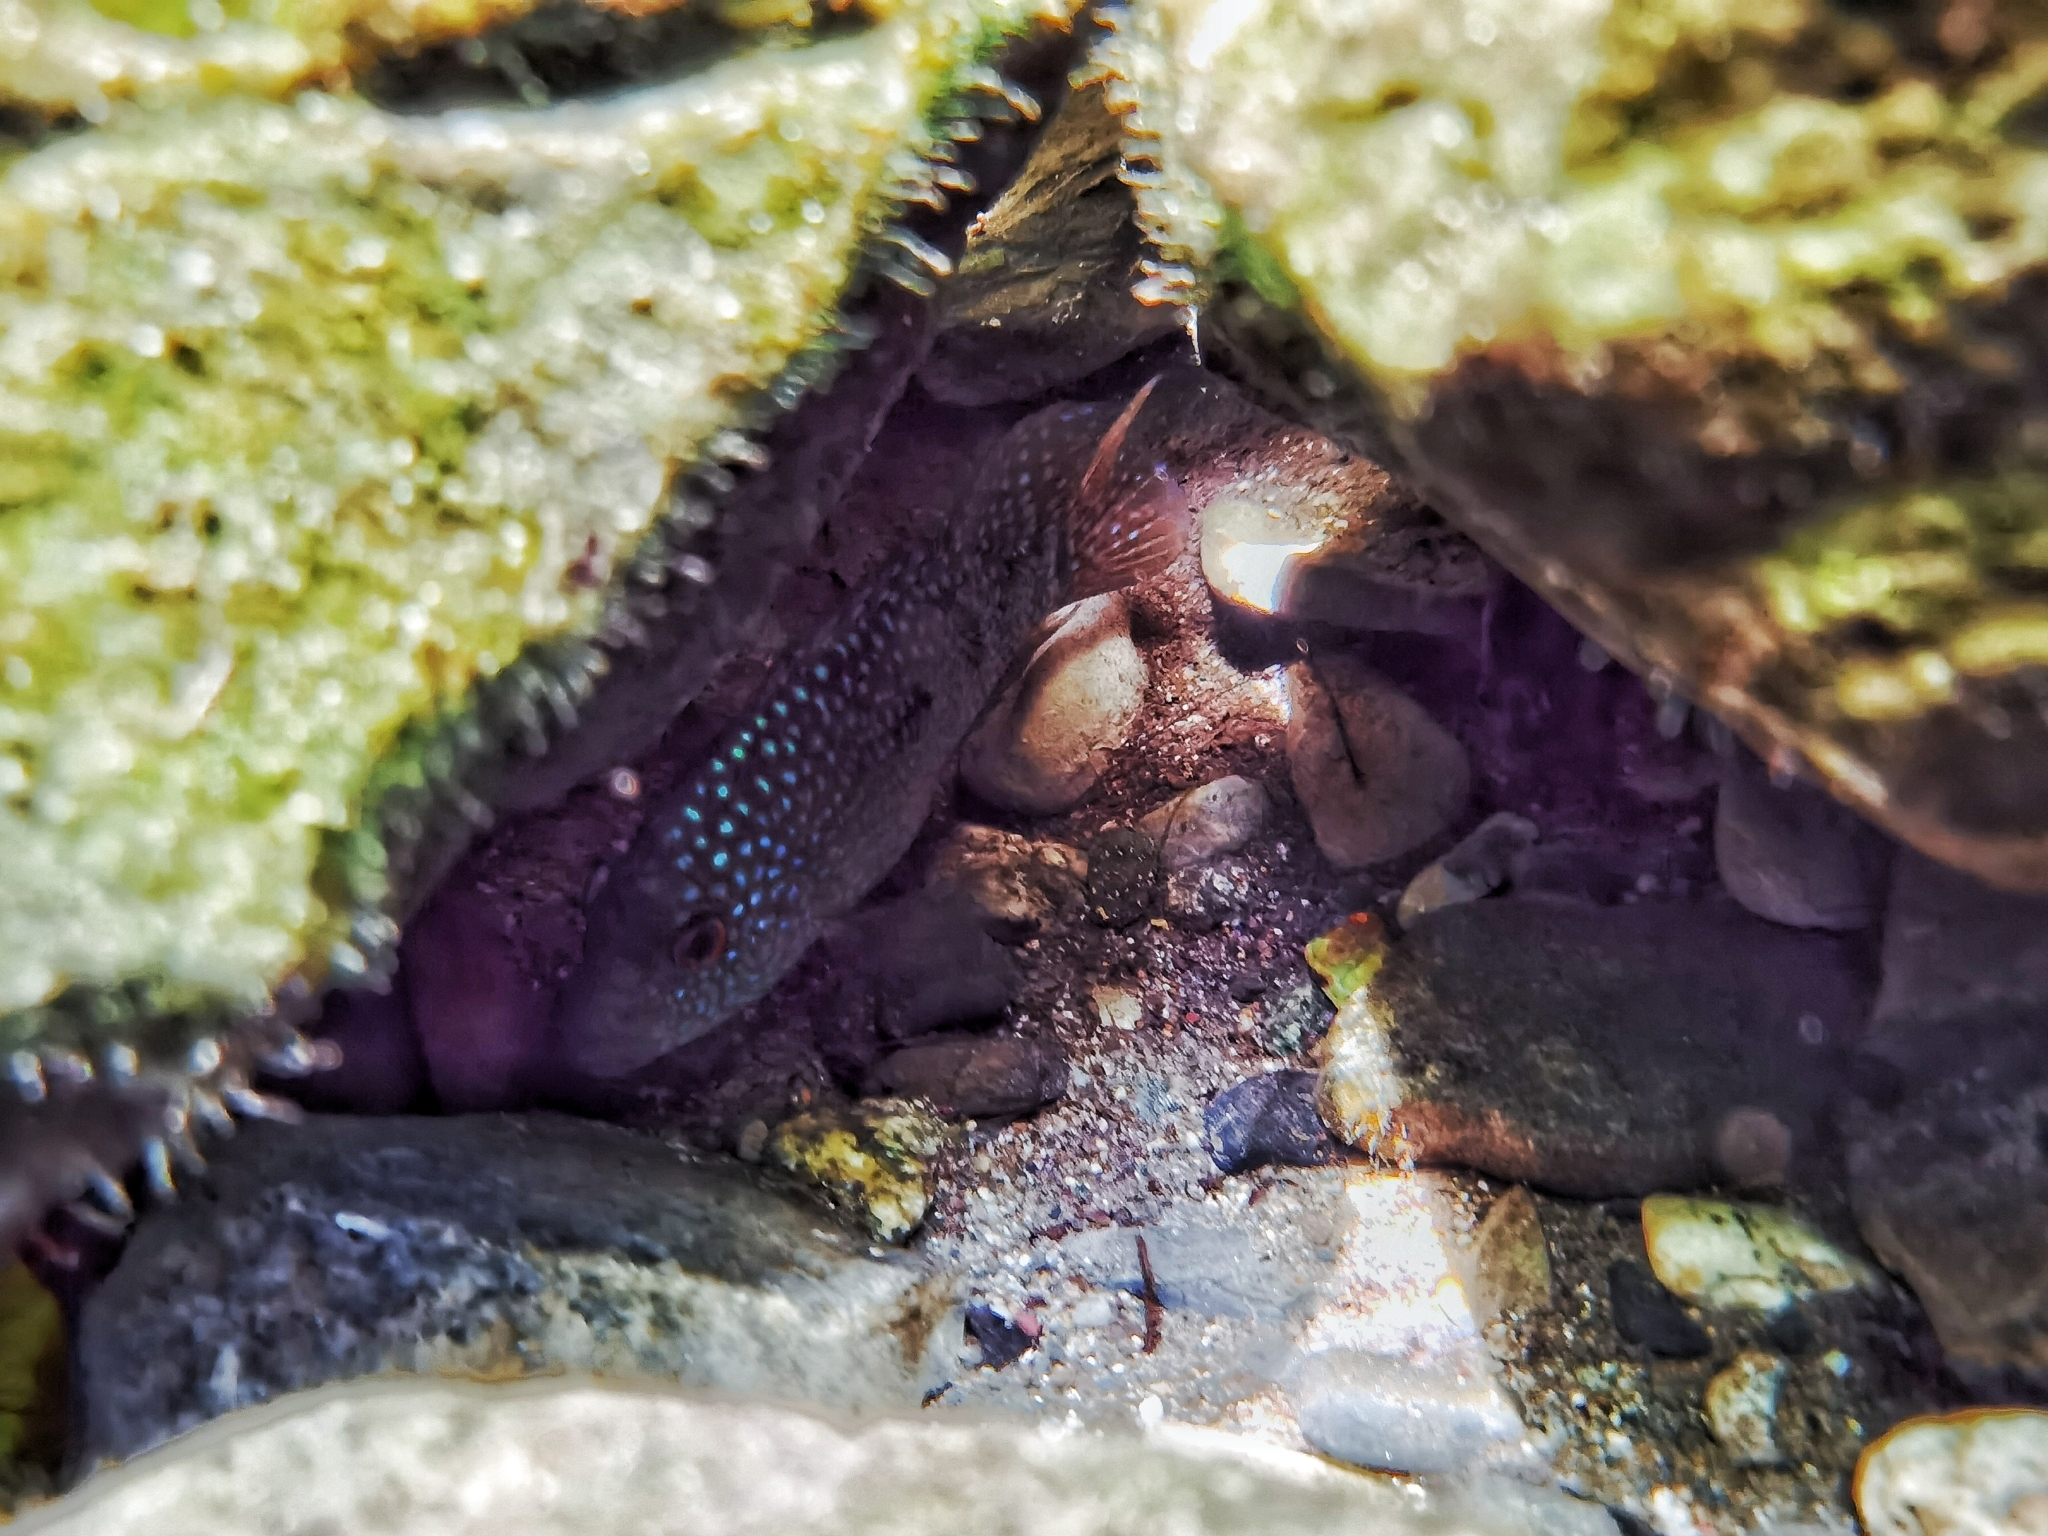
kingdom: Animalia
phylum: Chordata
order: Perciformes
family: Cichlidae
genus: Herichthys
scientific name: Herichthys carpintis
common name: Lowland cichlid
